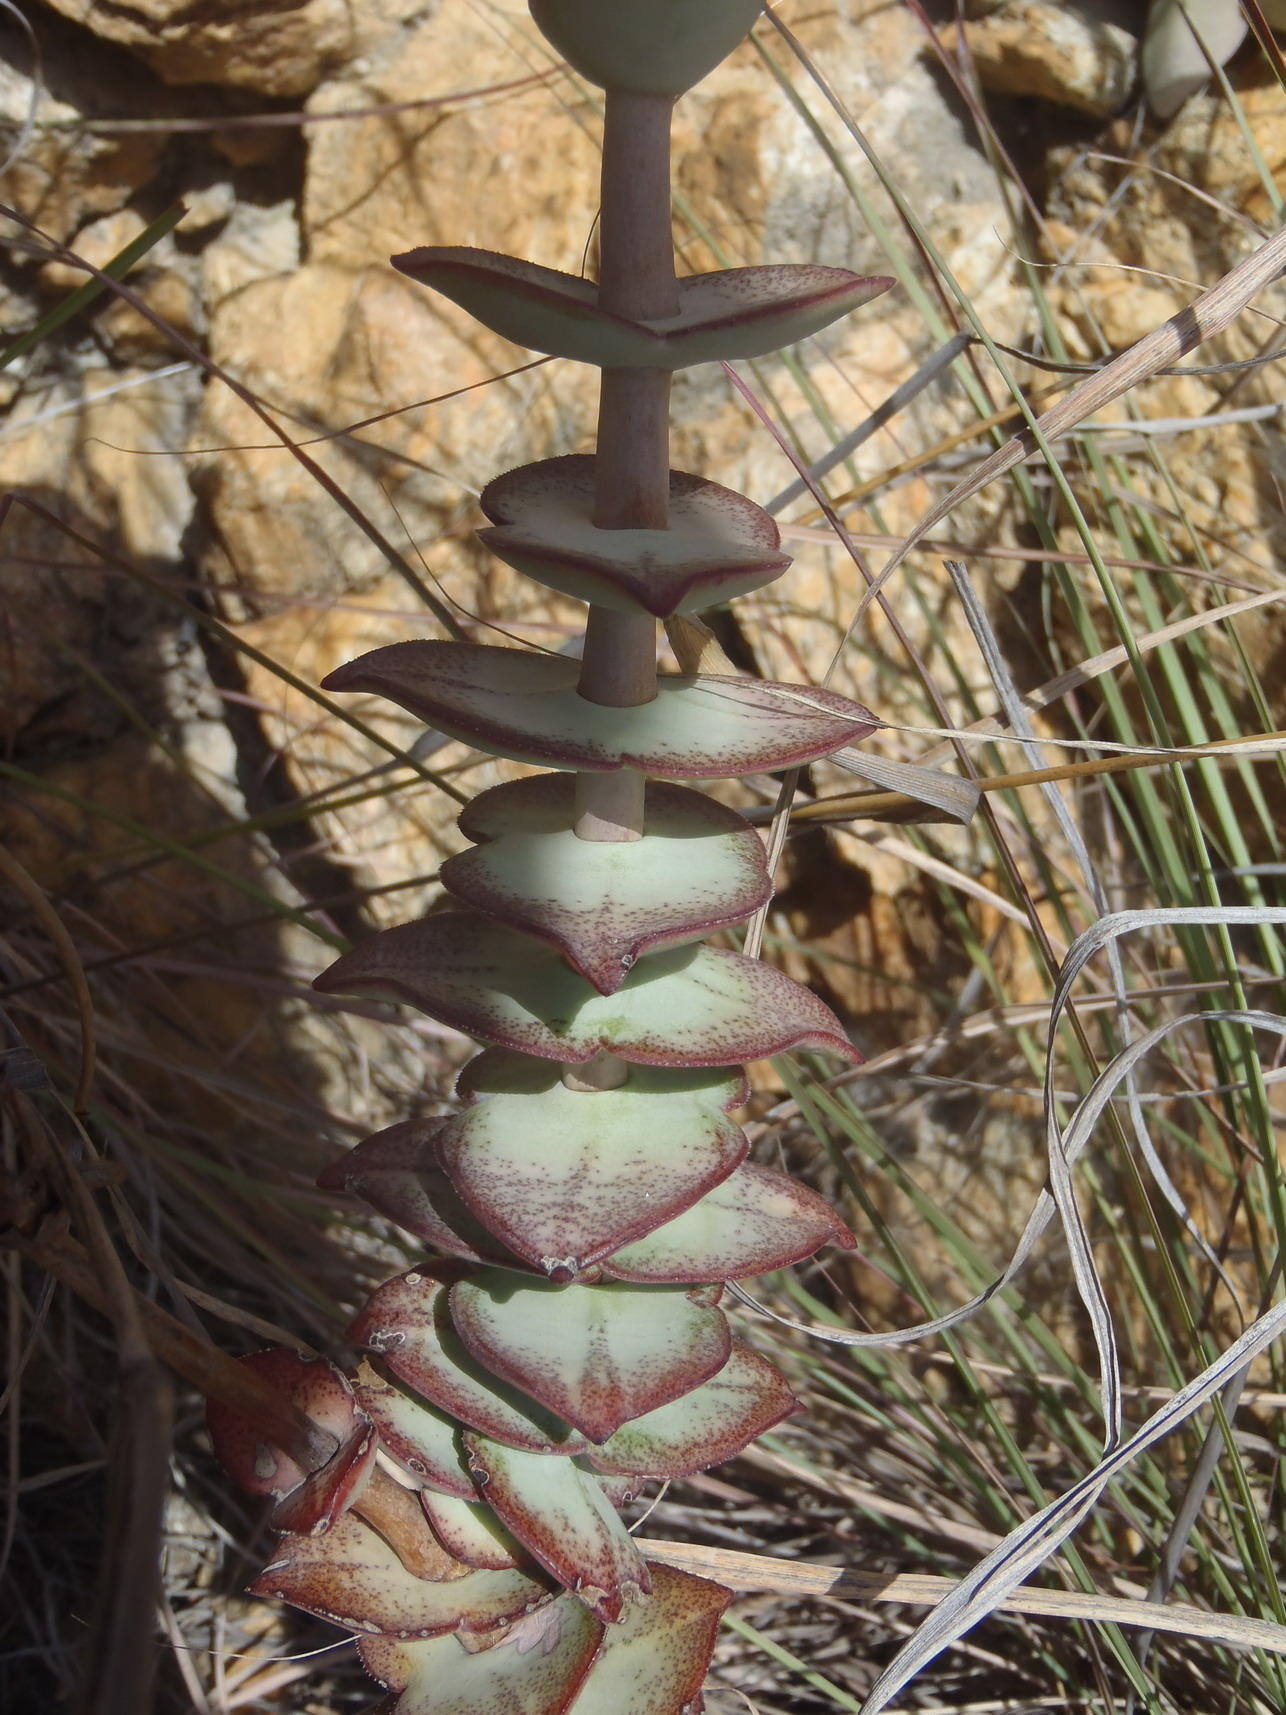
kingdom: Plantae
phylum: Tracheophyta
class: Magnoliopsida
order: Saxifragales
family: Crassulaceae
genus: Crassula
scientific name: Crassula perforata
